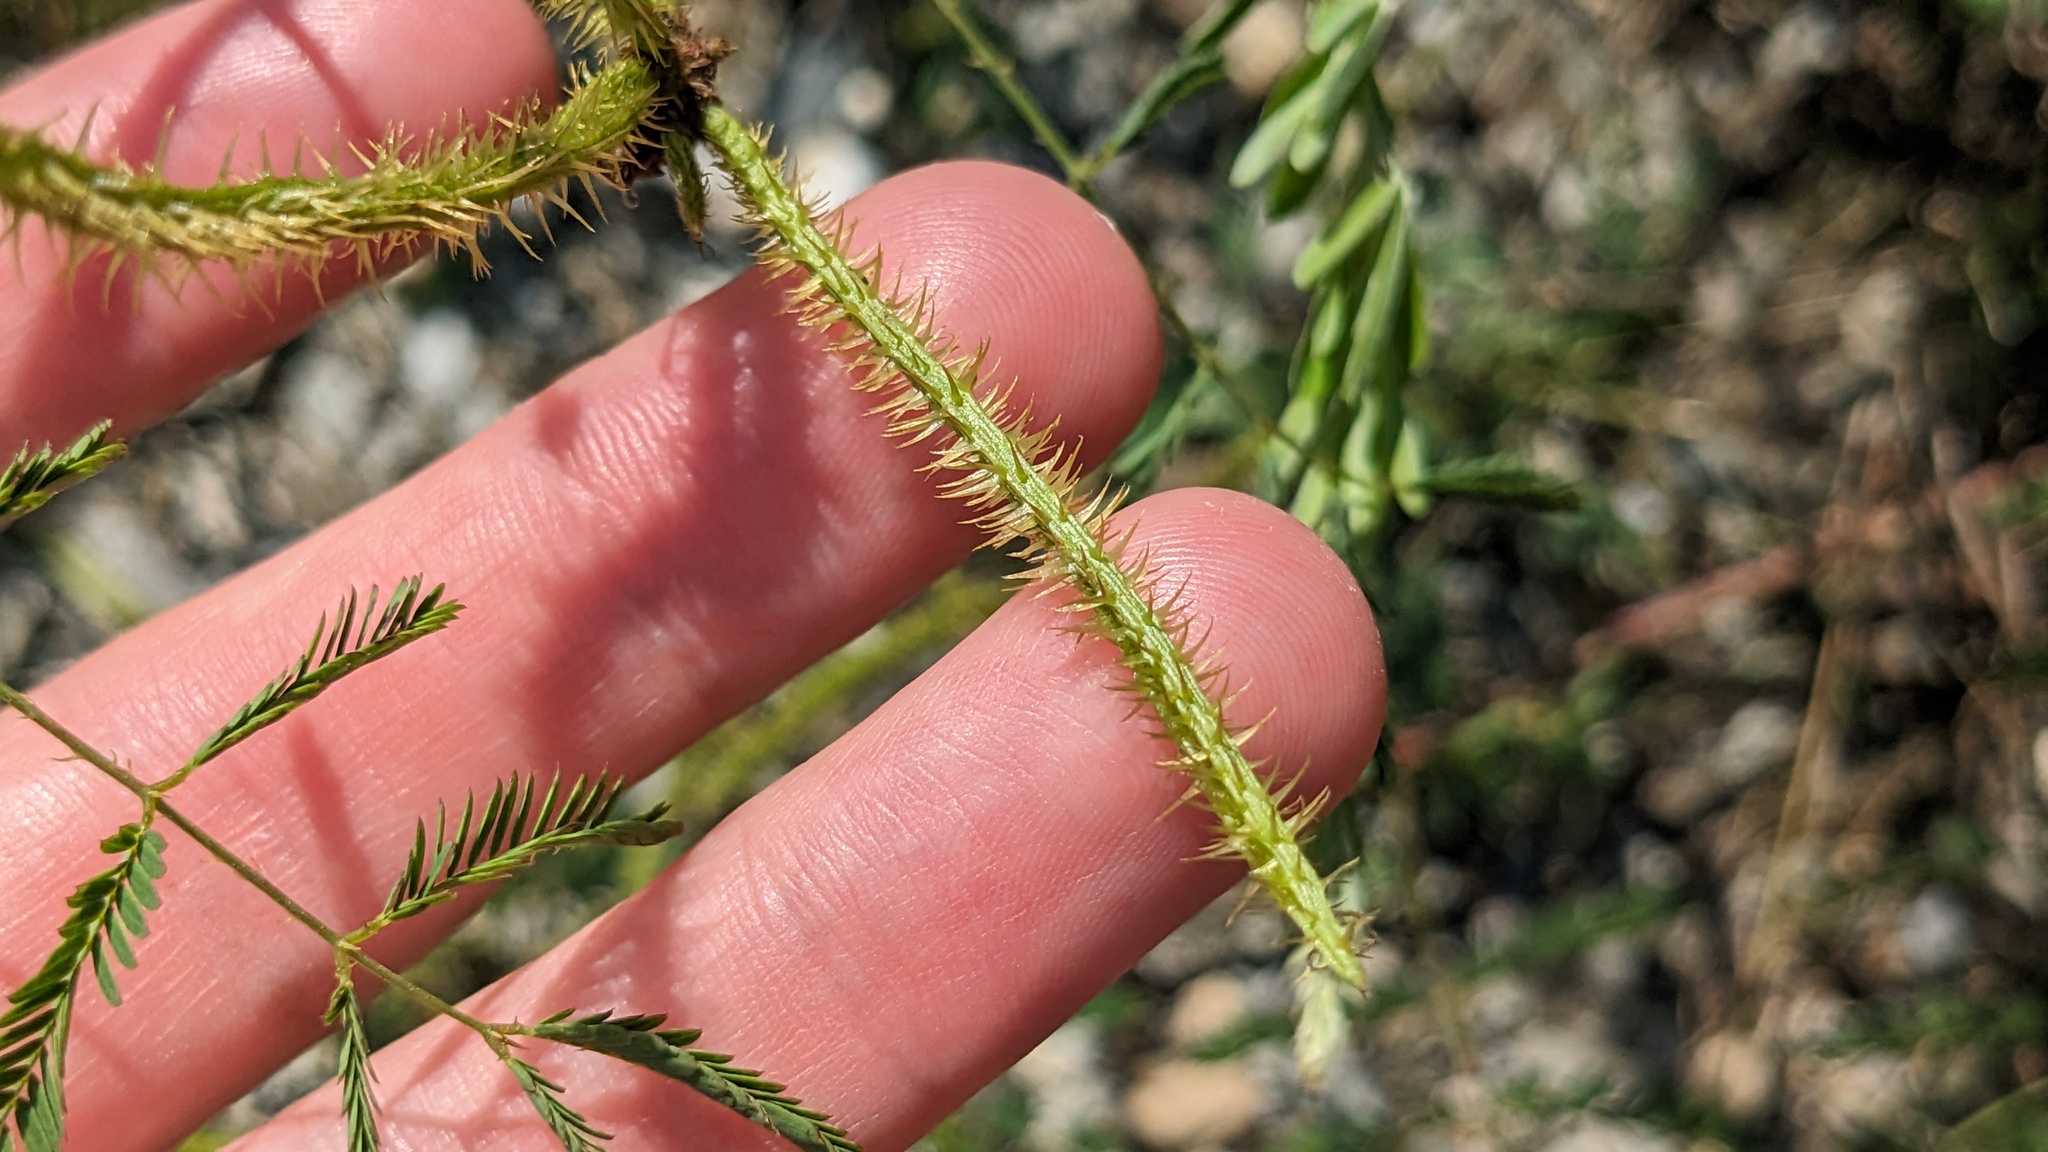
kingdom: Plantae
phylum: Tracheophyta
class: Magnoliopsida
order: Fabales
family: Fabaceae
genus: Mimosa
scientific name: Mimosa quadrivalvis
